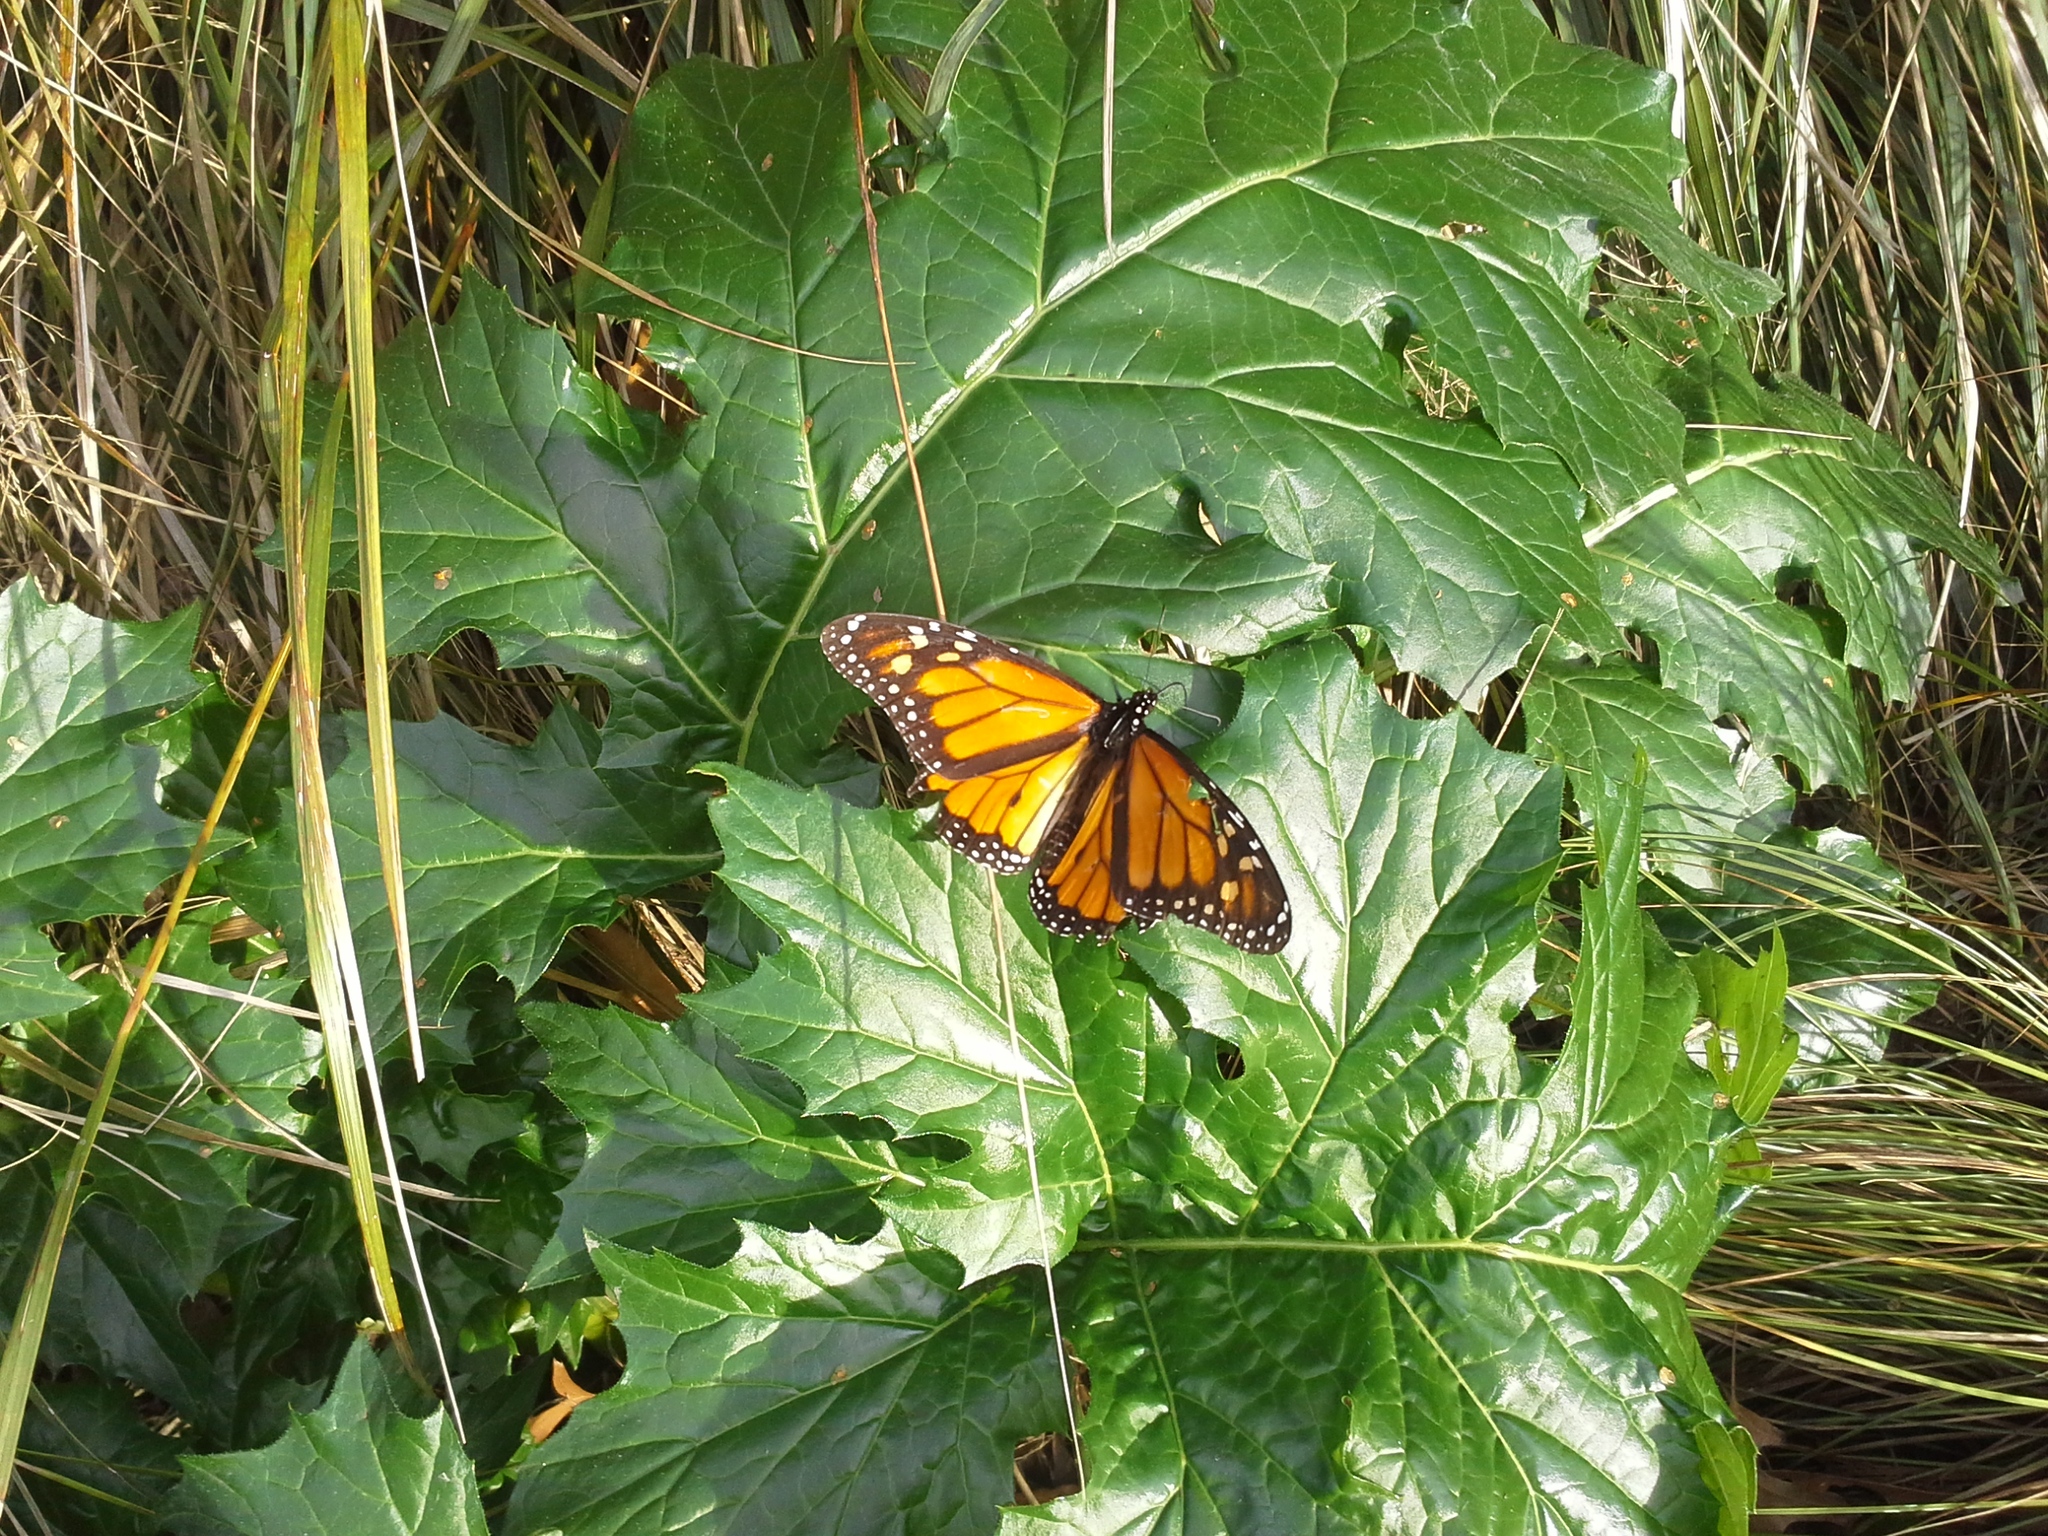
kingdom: Animalia
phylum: Arthropoda
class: Insecta
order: Lepidoptera
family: Nymphalidae
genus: Danaus
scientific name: Danaus plexippus
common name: Monarch
